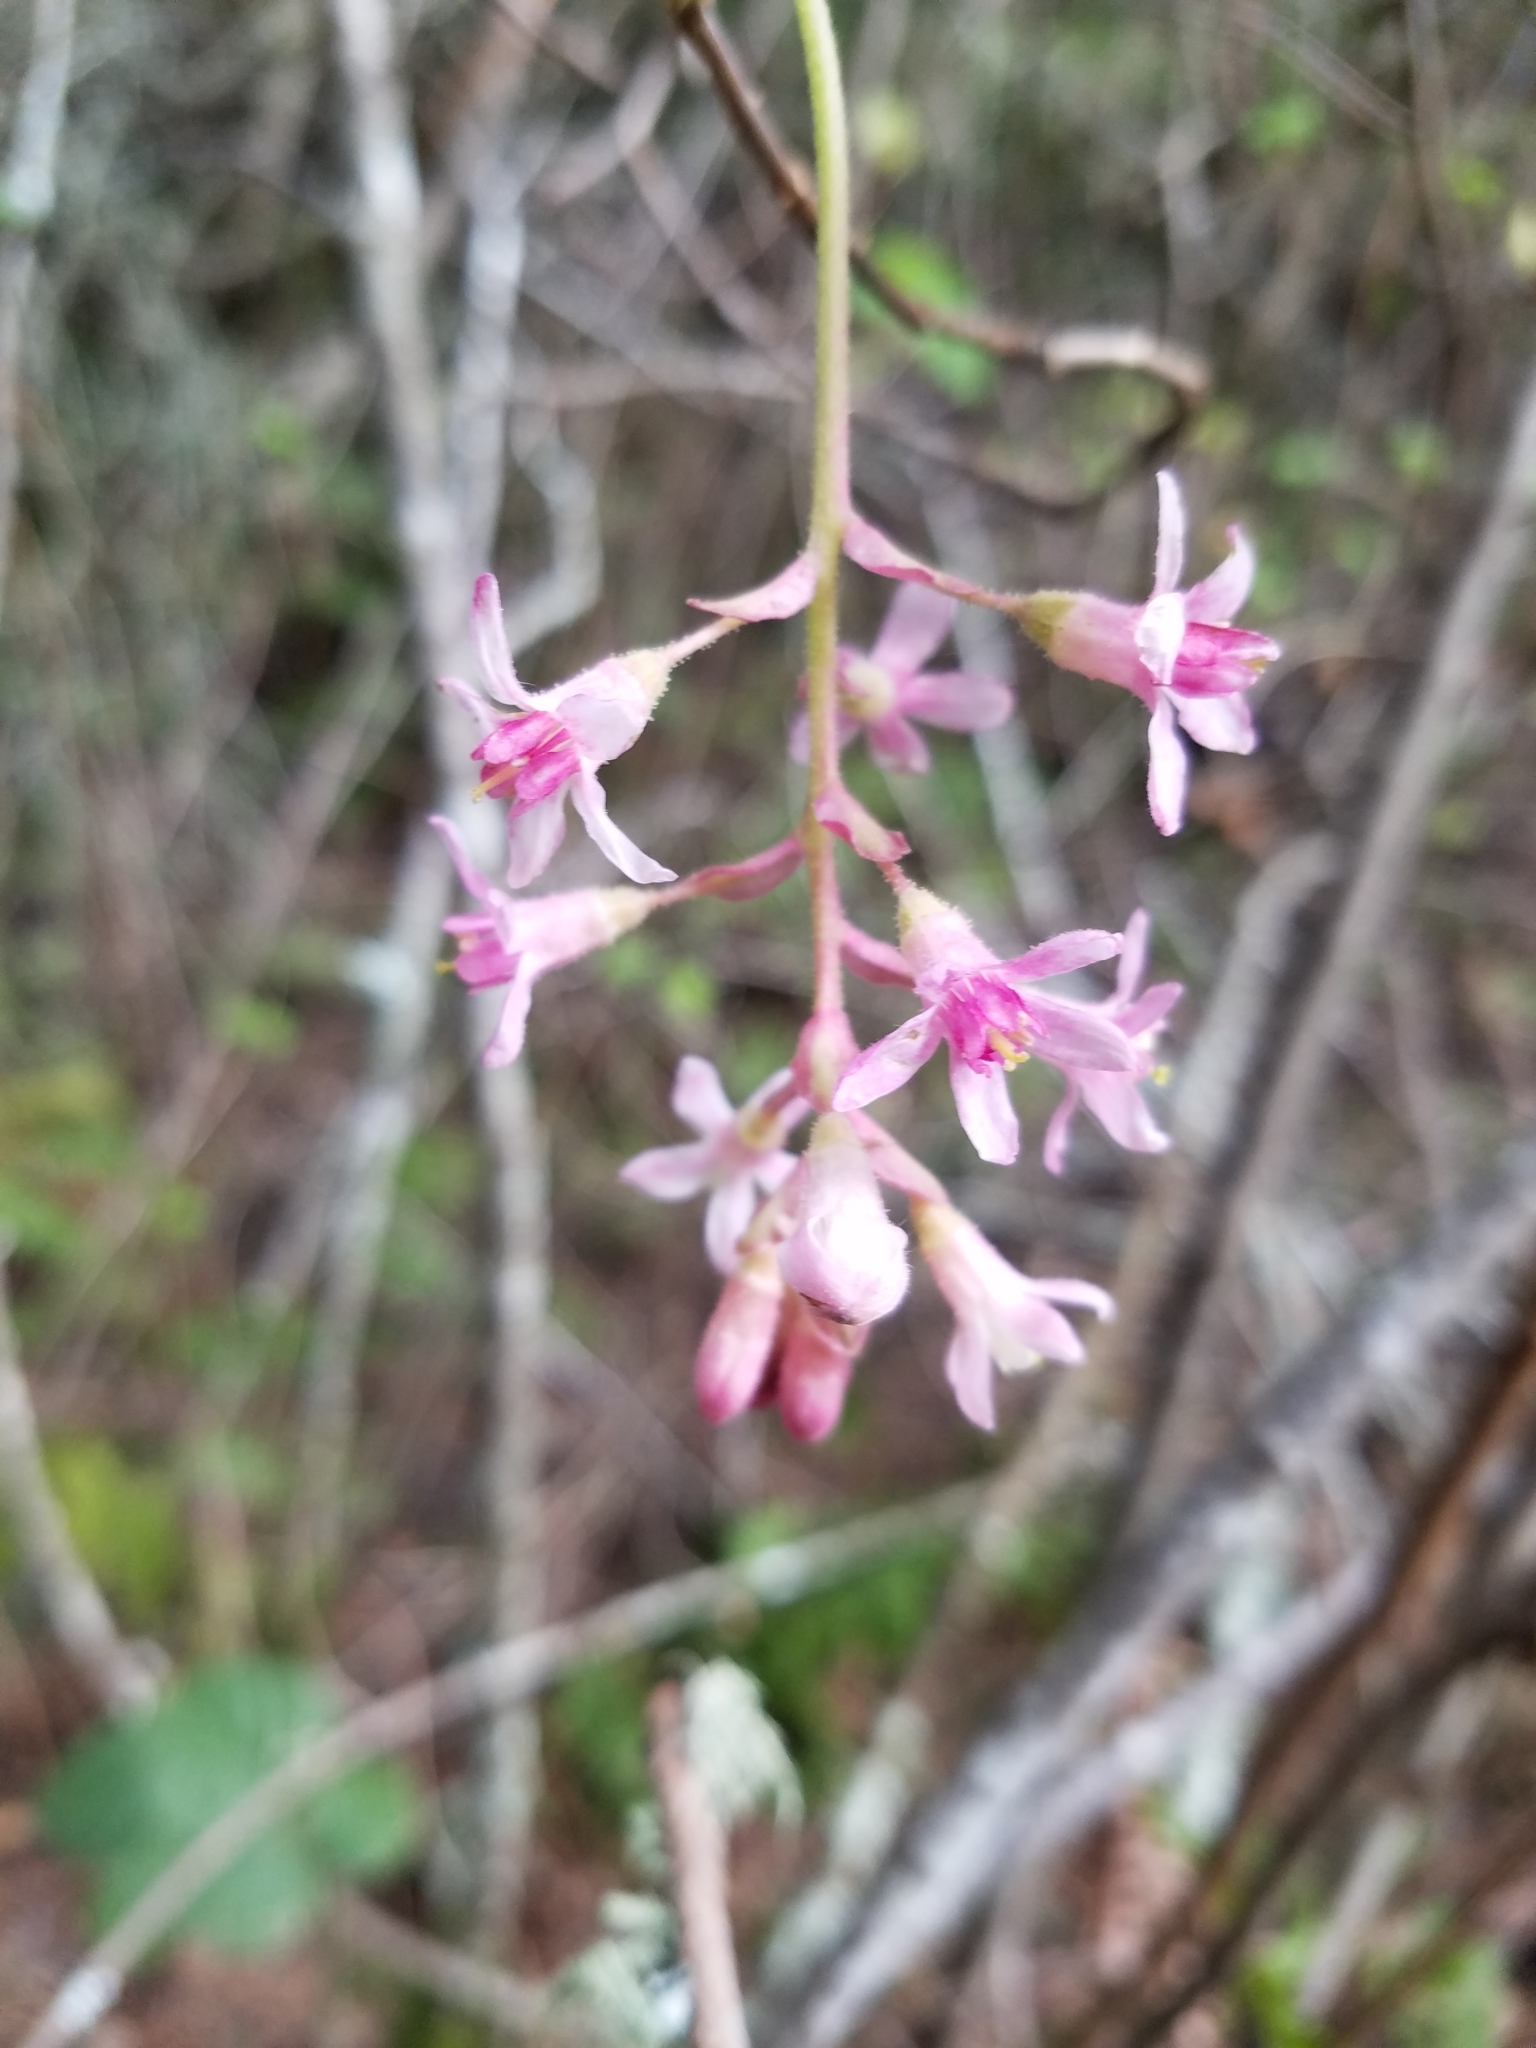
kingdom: Plantae
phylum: Tracheophyta
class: Magnoliopsida
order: Saxifragales
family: Grossulariaceae
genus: Ribes
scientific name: Ribes sanguineum
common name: Flowering currant
